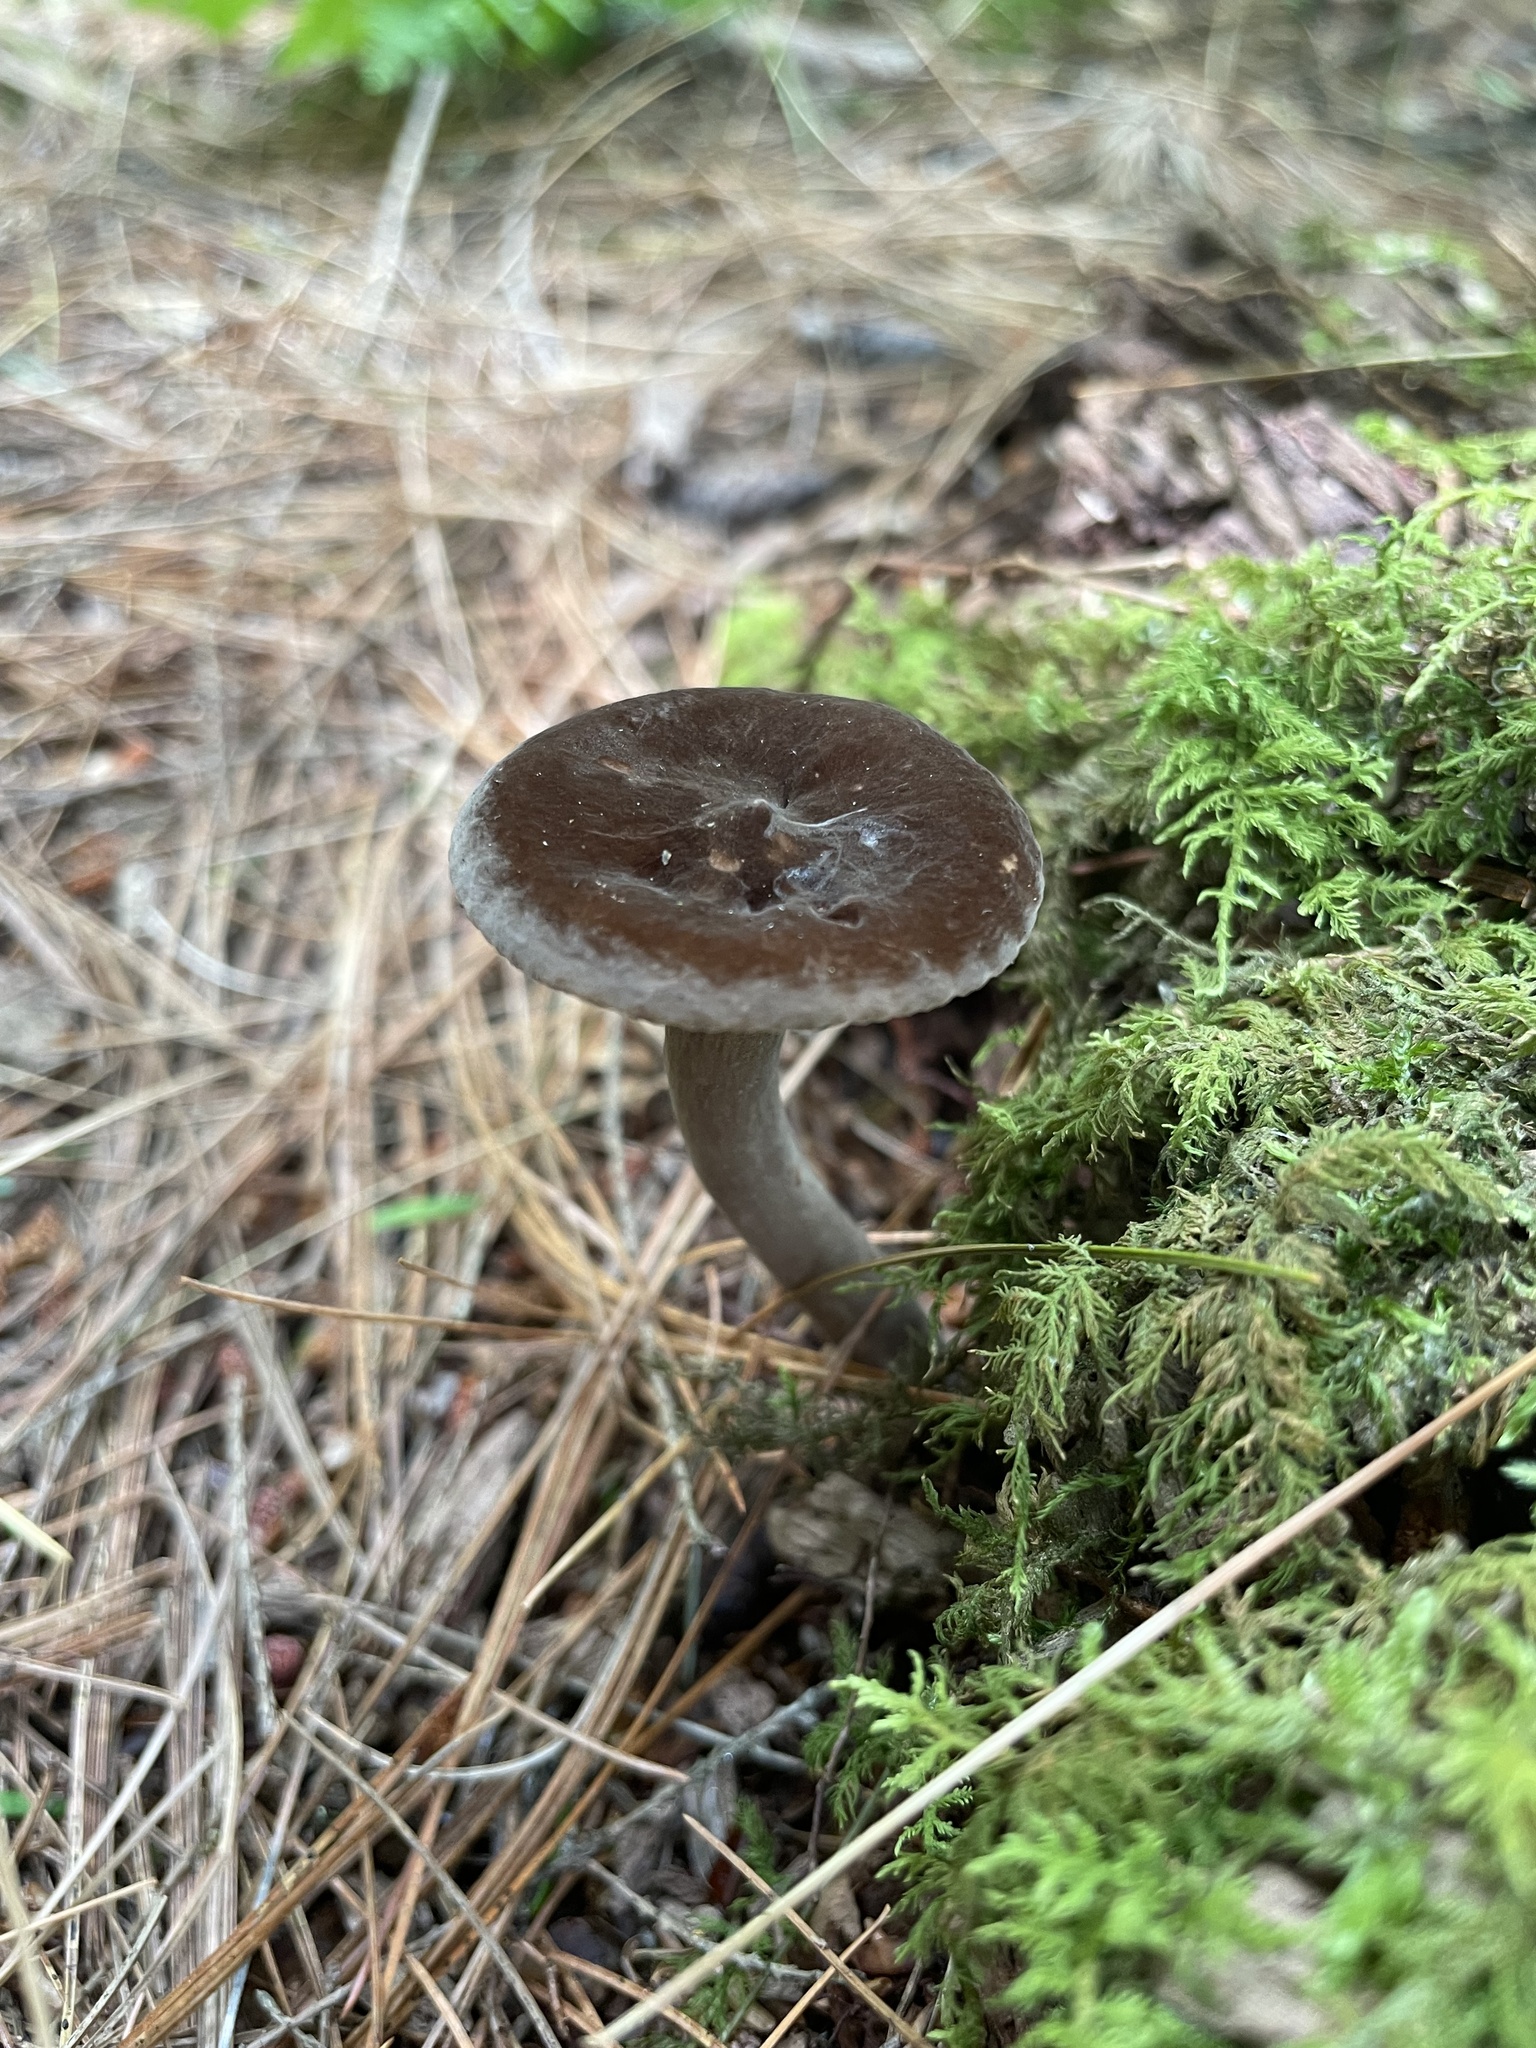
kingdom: Fungi
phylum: Basidiomycota
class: Agaricomycetes
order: Russulales
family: Russulaceae
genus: Lactarius
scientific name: Lactarius lignyotus
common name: Velvet milkcap
